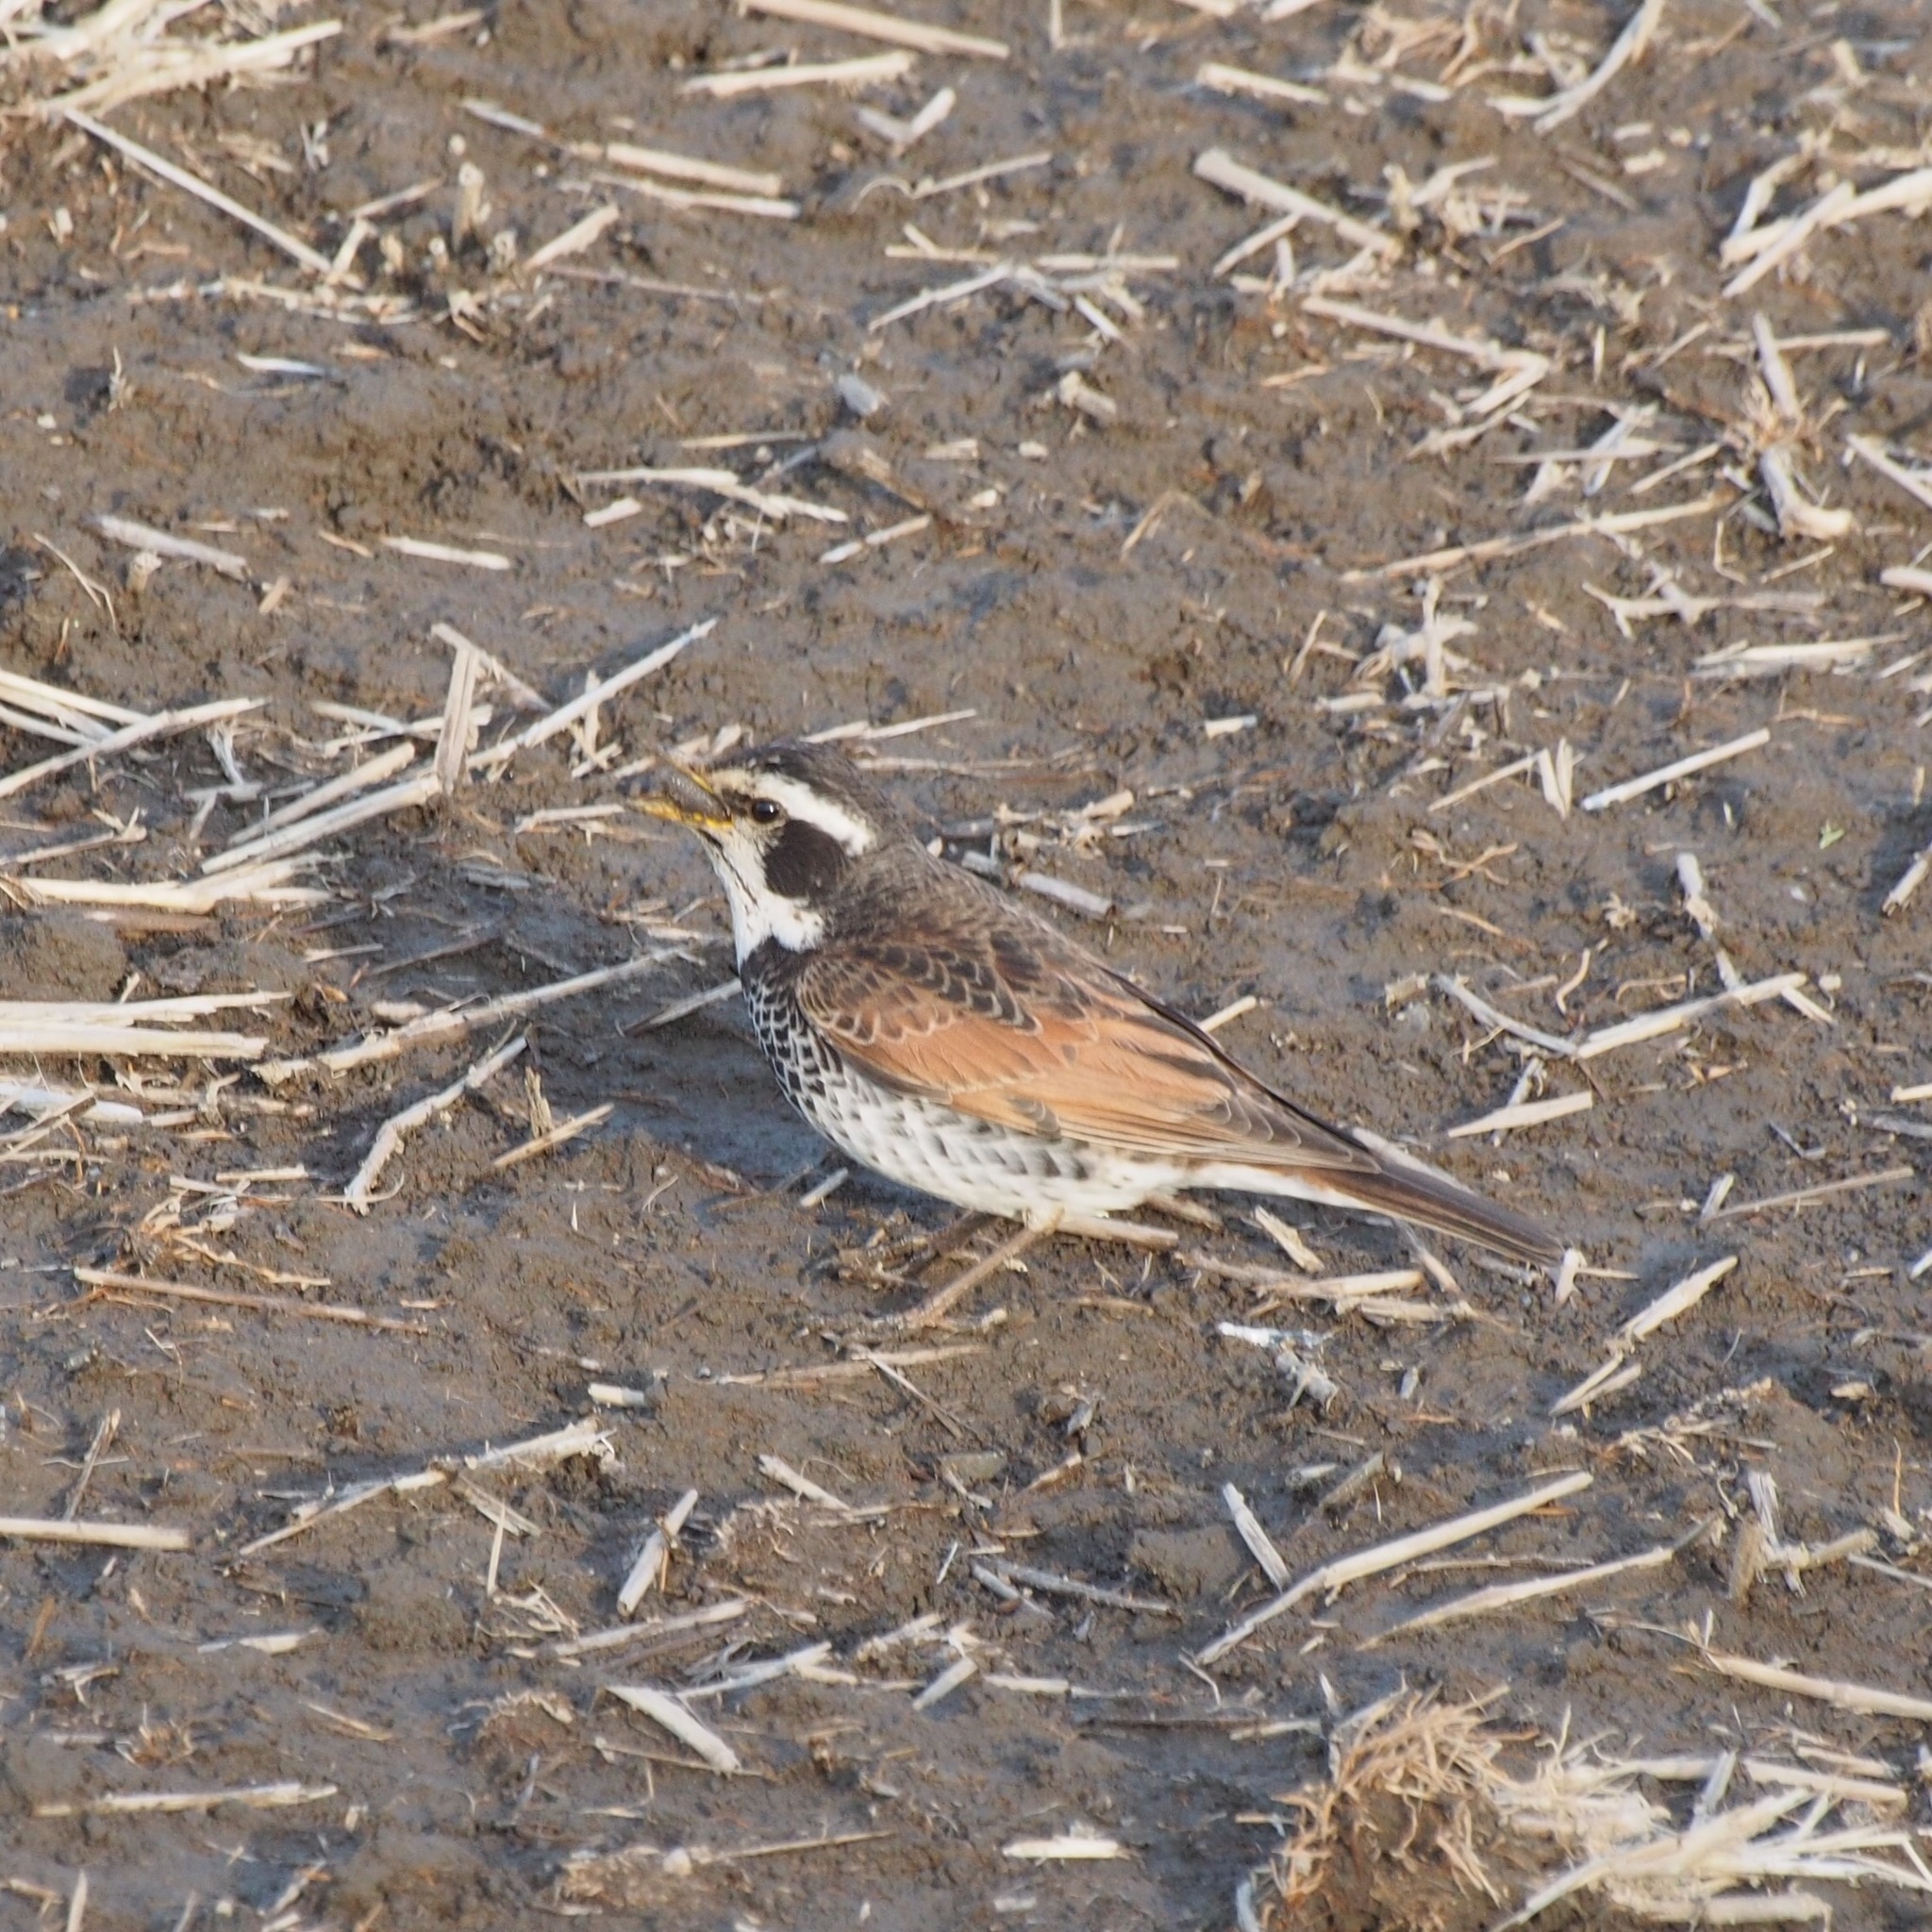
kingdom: Animalia
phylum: Chordata
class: Aves
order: Passeriformes
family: Turdidae
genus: Turdus
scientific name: Turdus eunomus
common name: Dusky thrush
